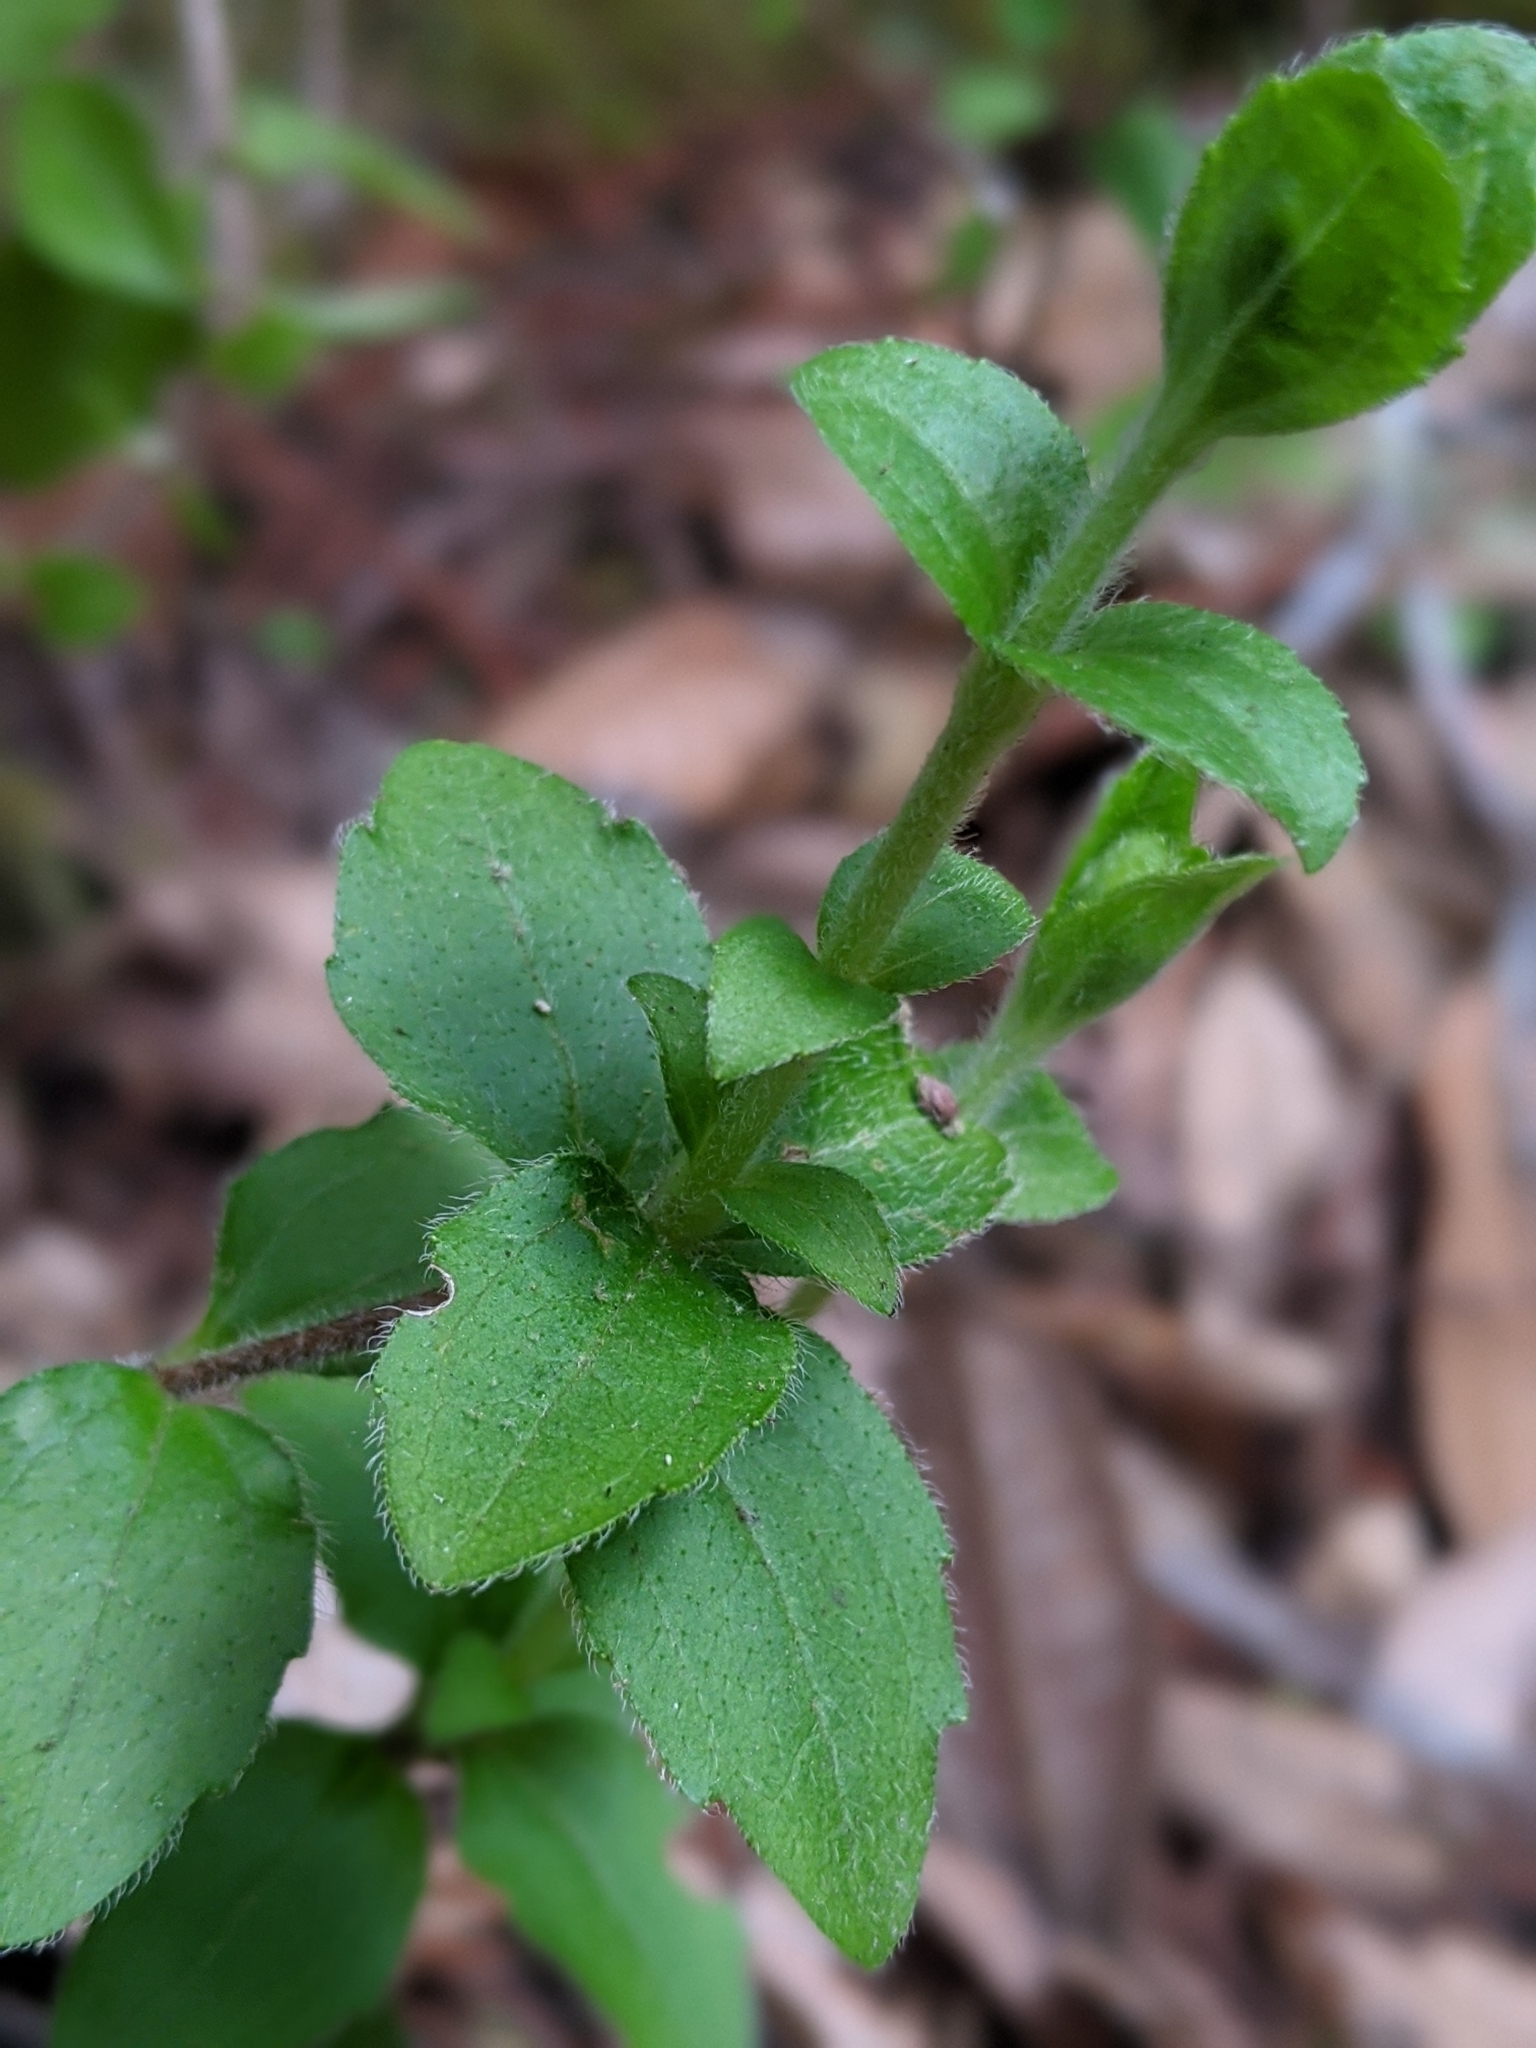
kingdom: Plantae
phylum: Tracheophyta
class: Magnoliopsida
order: Cornales
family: Hydrangeaceae
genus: Whipplea
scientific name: Whipplea modesta
